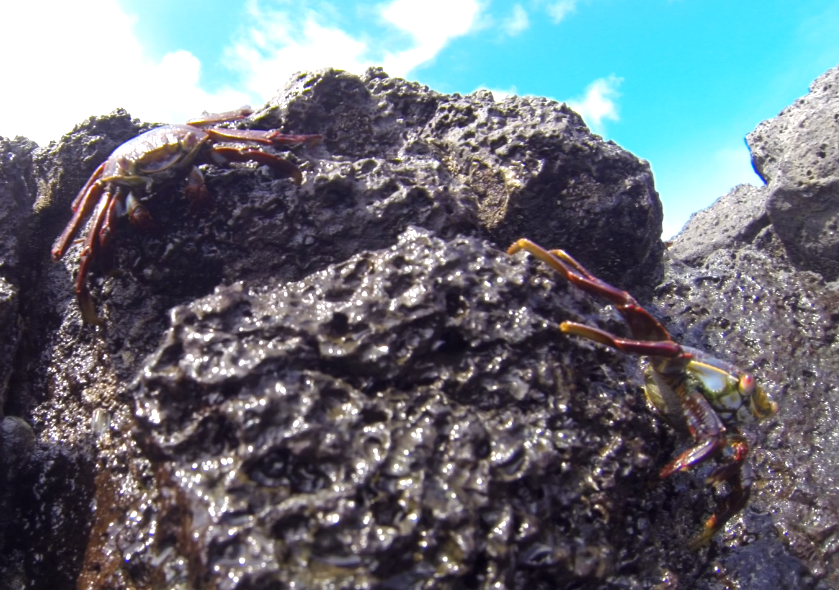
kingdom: Animalia
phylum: Arthropoda
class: Malacostraca
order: Decapoda
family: Grapsidae
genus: Grapsus
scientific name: Grapsus grapsus
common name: Sally lightfoot
